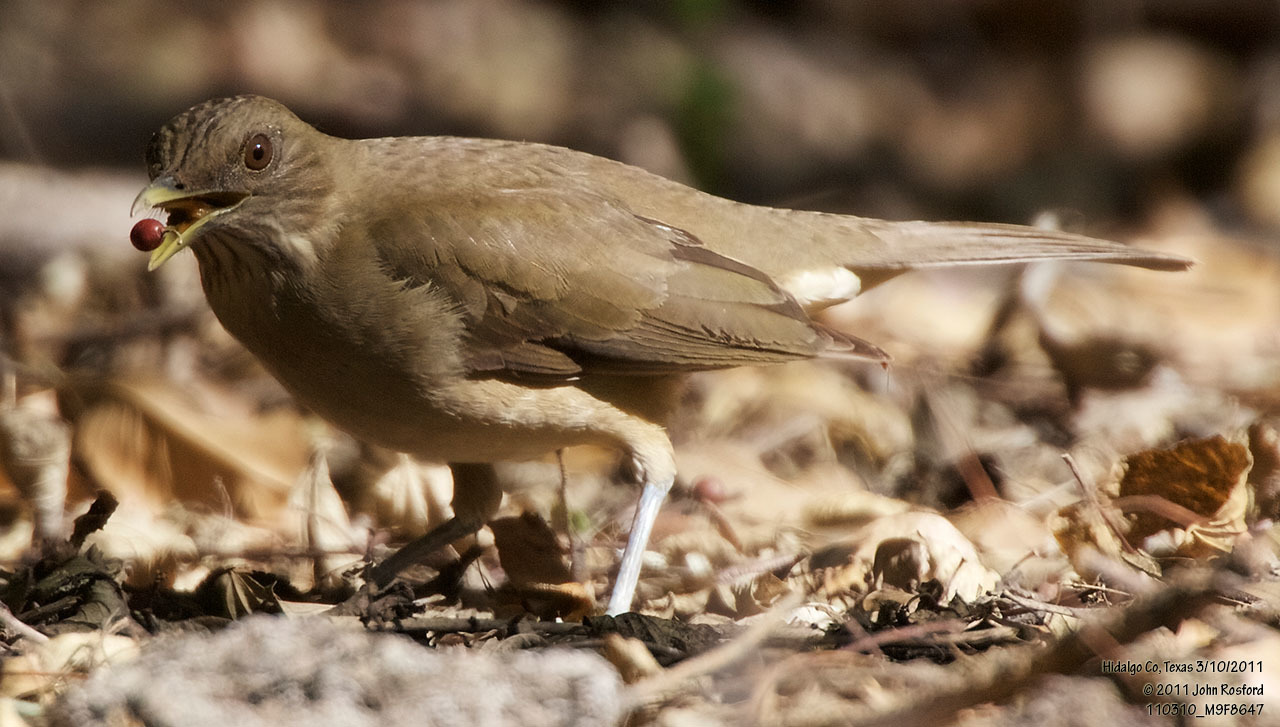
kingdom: Animalia
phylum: Chordata
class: Aves
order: Passeriformes
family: Turdidae
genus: Turdus
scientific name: Turdus grayi
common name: Clay-colored thrush
